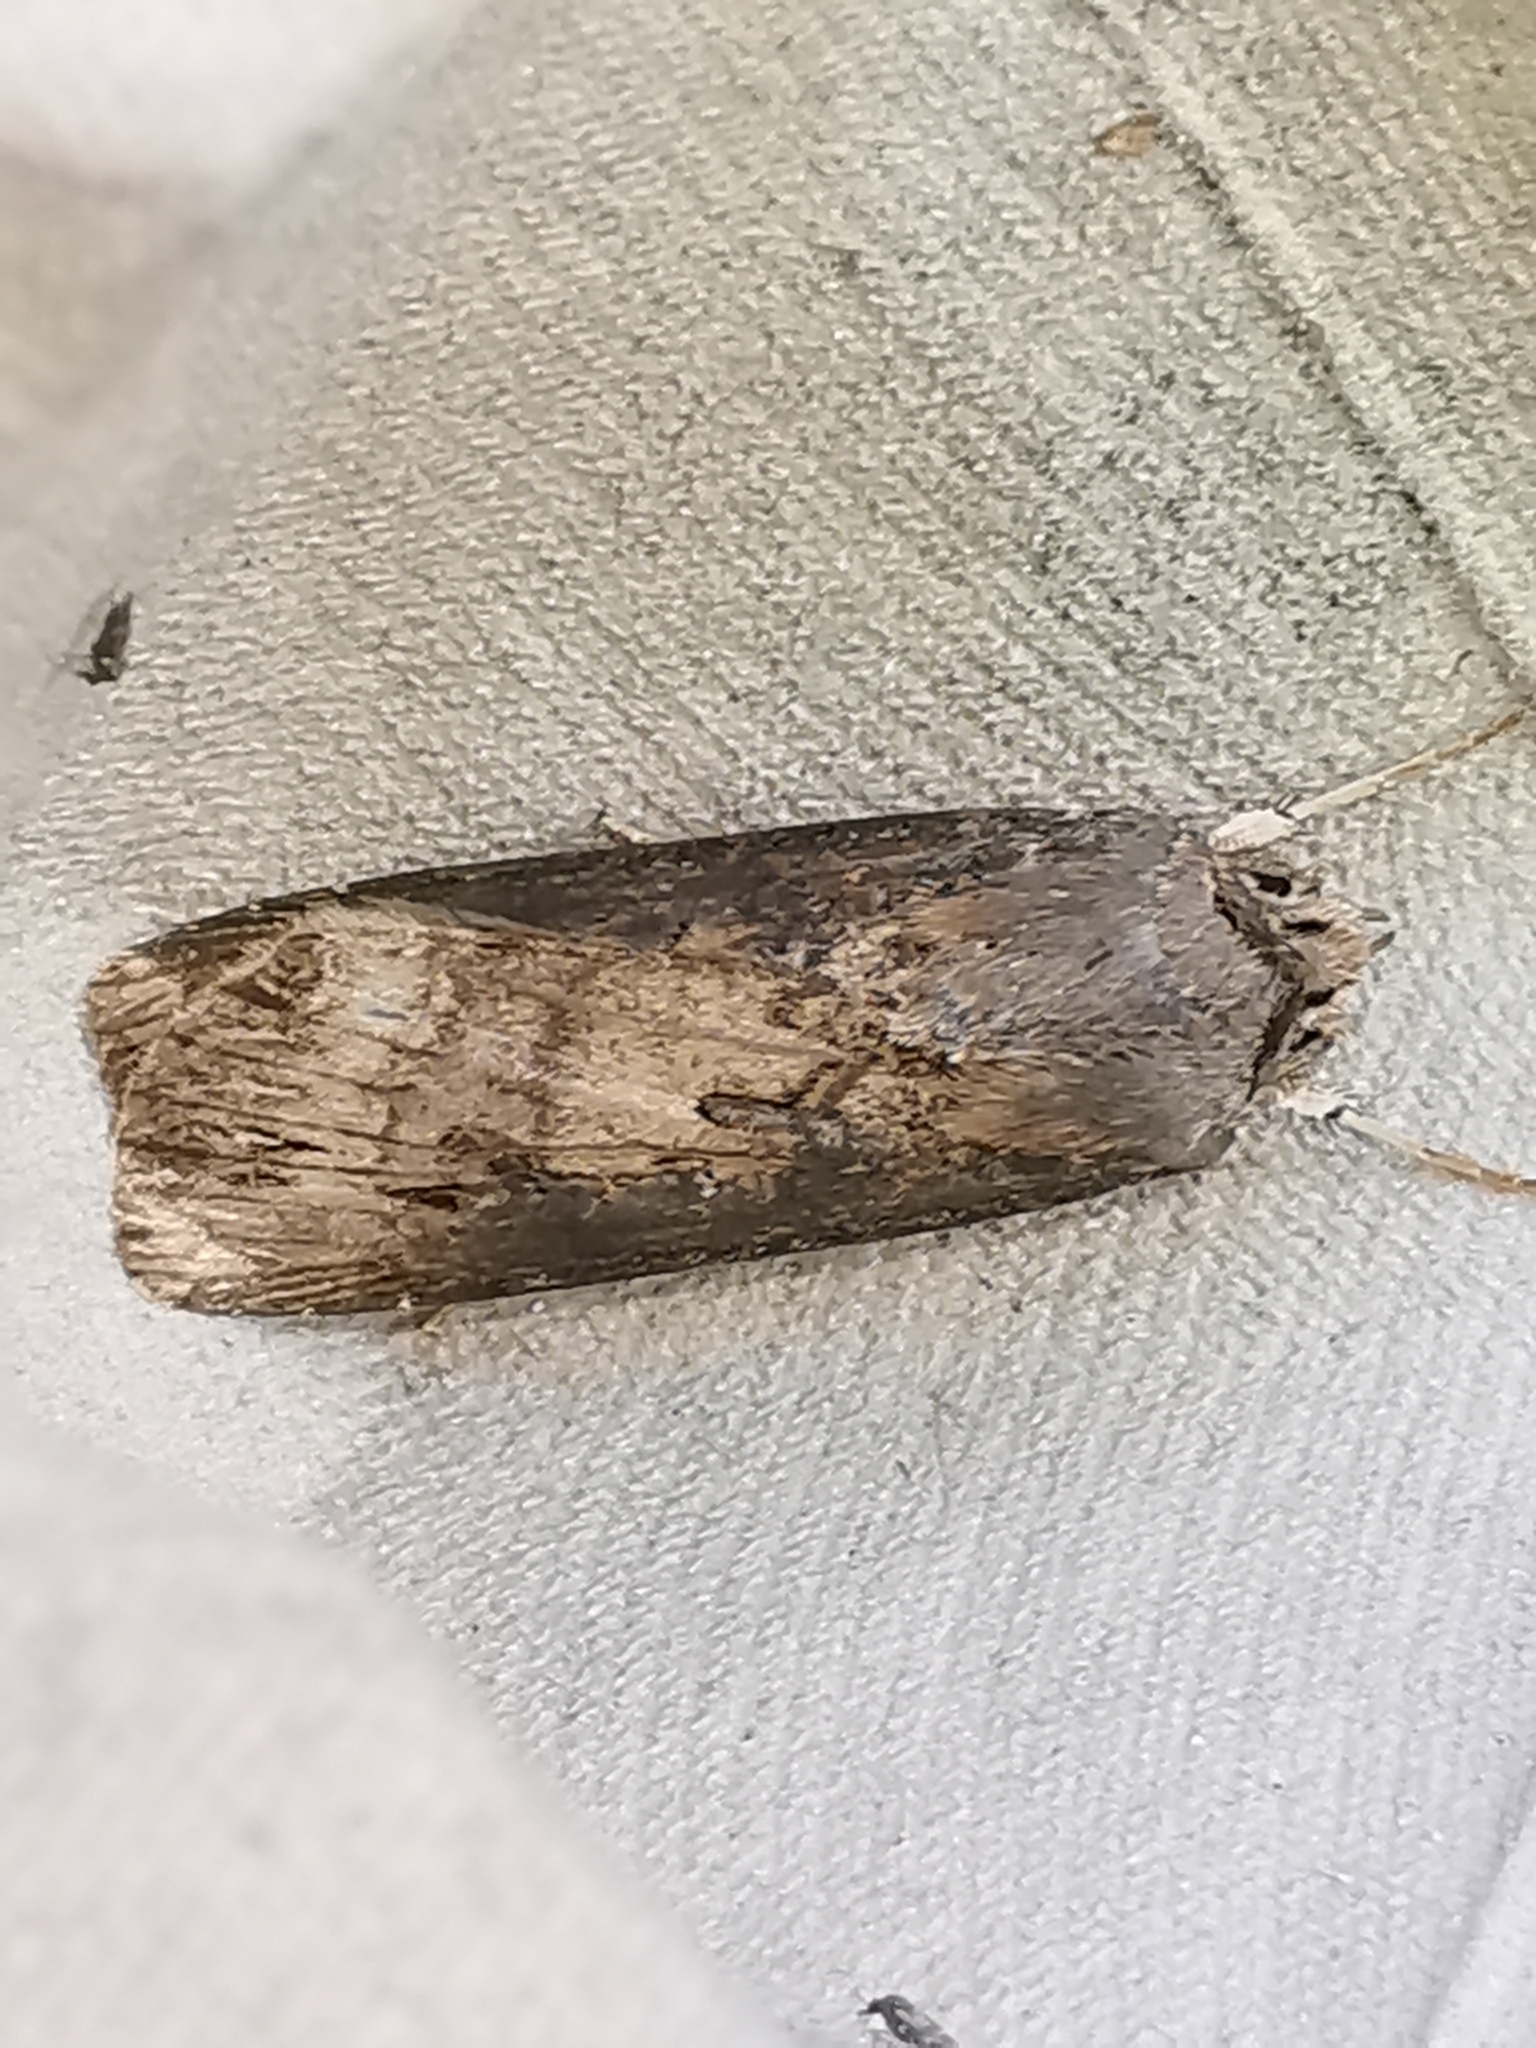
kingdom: Animalia
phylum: Arthropoda
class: Insecta
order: Lepidoptera
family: Noctuidae
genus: Agrotis
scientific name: Agrotis ipsilon
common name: Dark sword-grass
